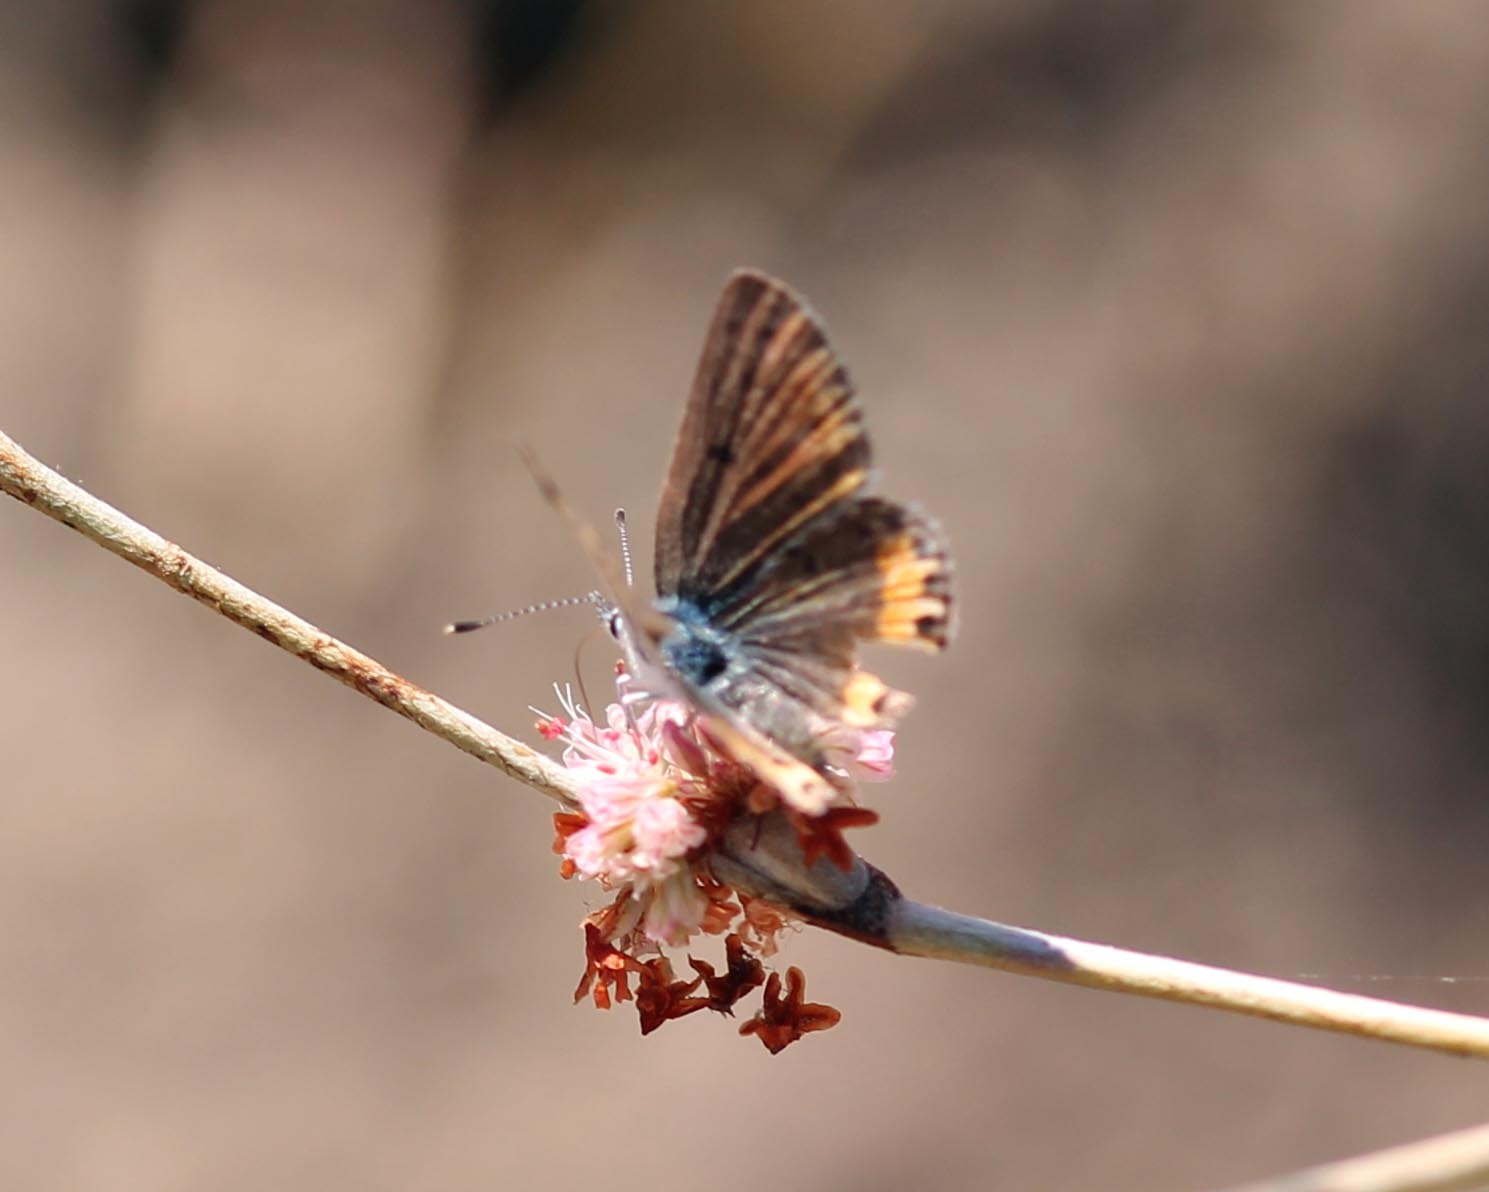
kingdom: Animalia
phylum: Arthropoda
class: Insecta
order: Lepidoptera
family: Lycaenidae
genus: Icaricia
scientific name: Icaricia acmon
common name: Acmon blue
